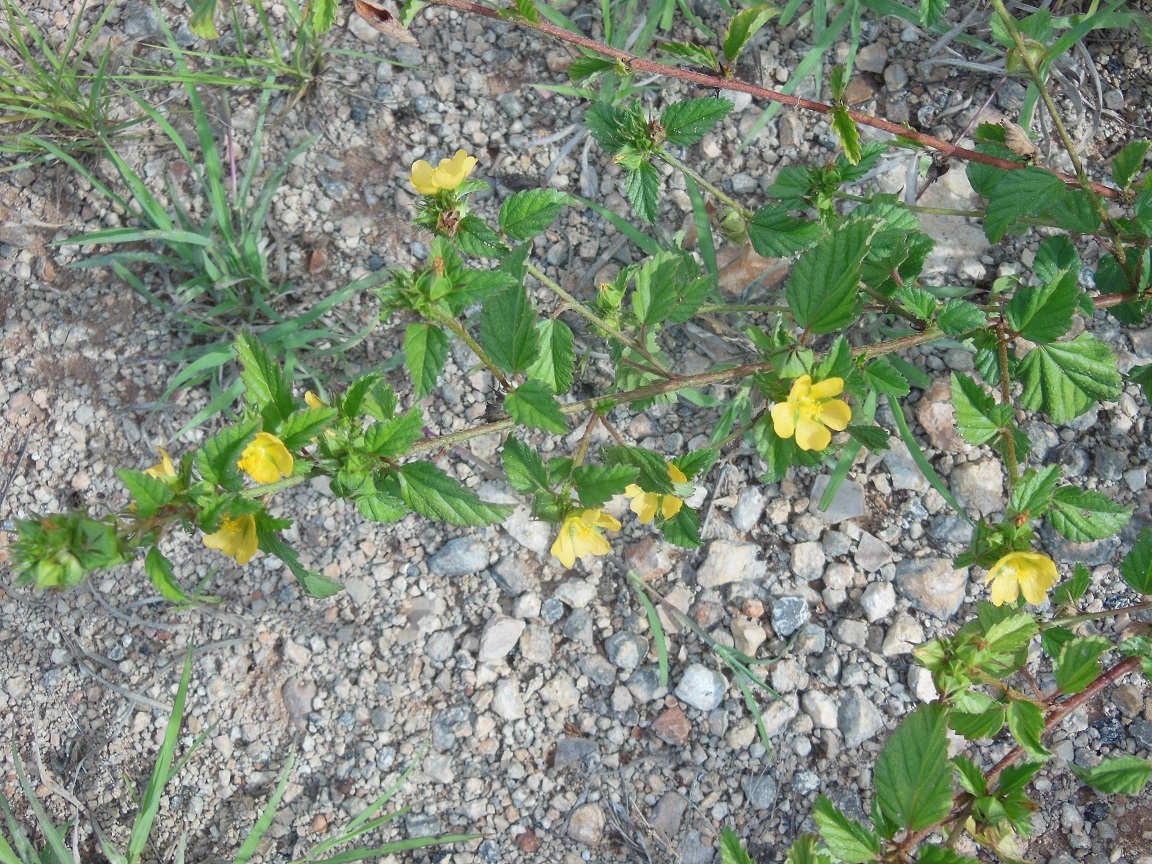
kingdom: Plantae
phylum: Tracheophyta
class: Magnoliopsida
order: Malvales
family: Malvaceae
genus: Malvastrum
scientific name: Malvastrum corchorifolium
